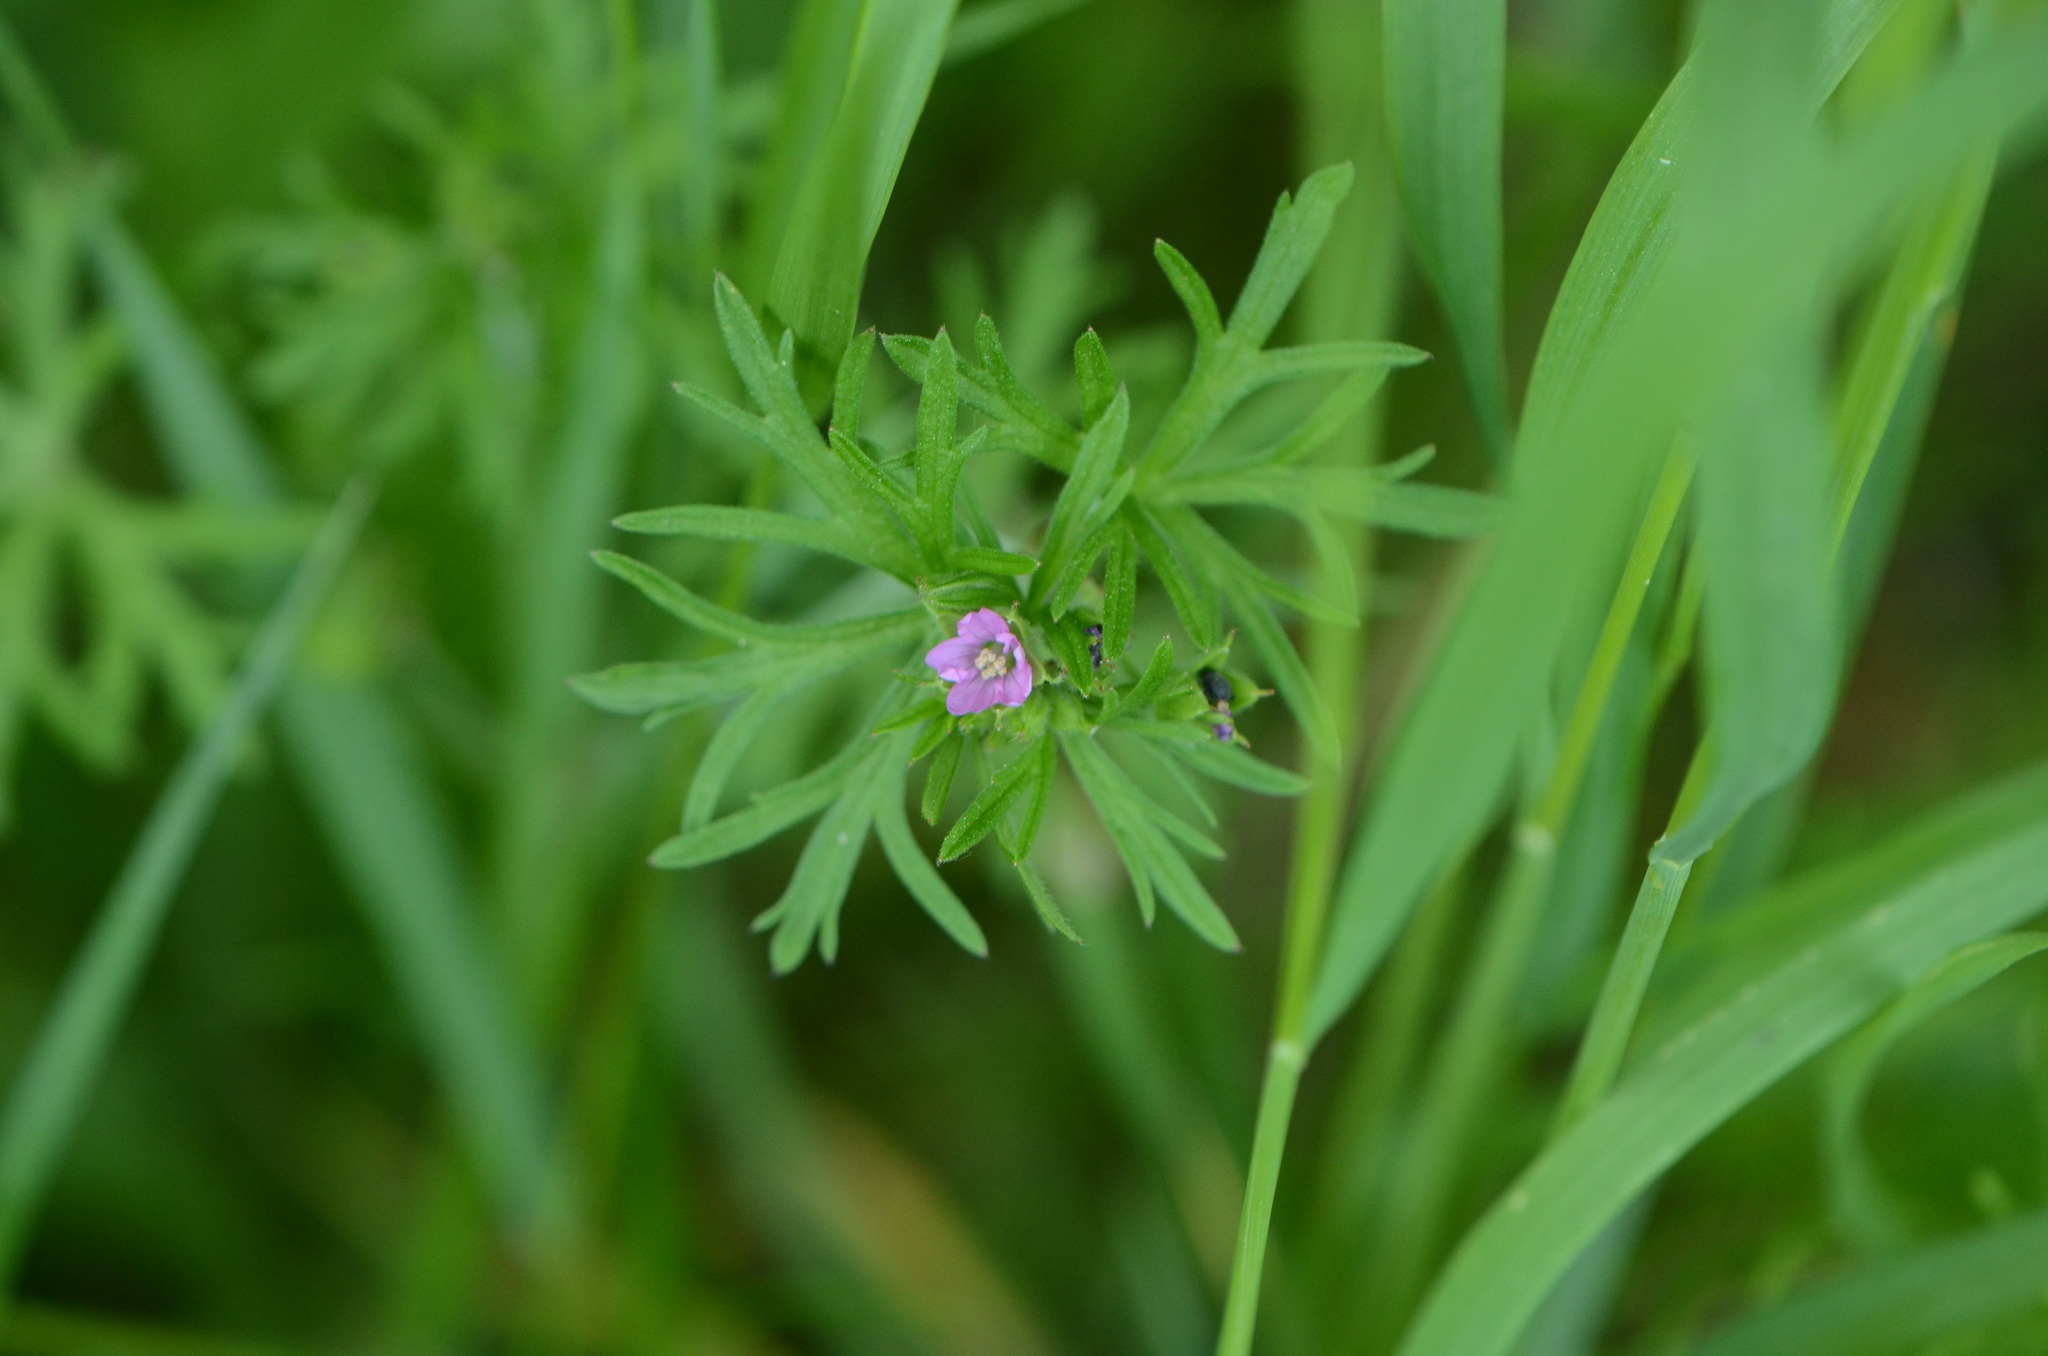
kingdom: Plantae
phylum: Tracheophyta
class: Magnoliopsida
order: Geraniales
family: Geraniaceae
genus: Geranium
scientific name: Geranium dissectum
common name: Cut-leaved crane's-bill
